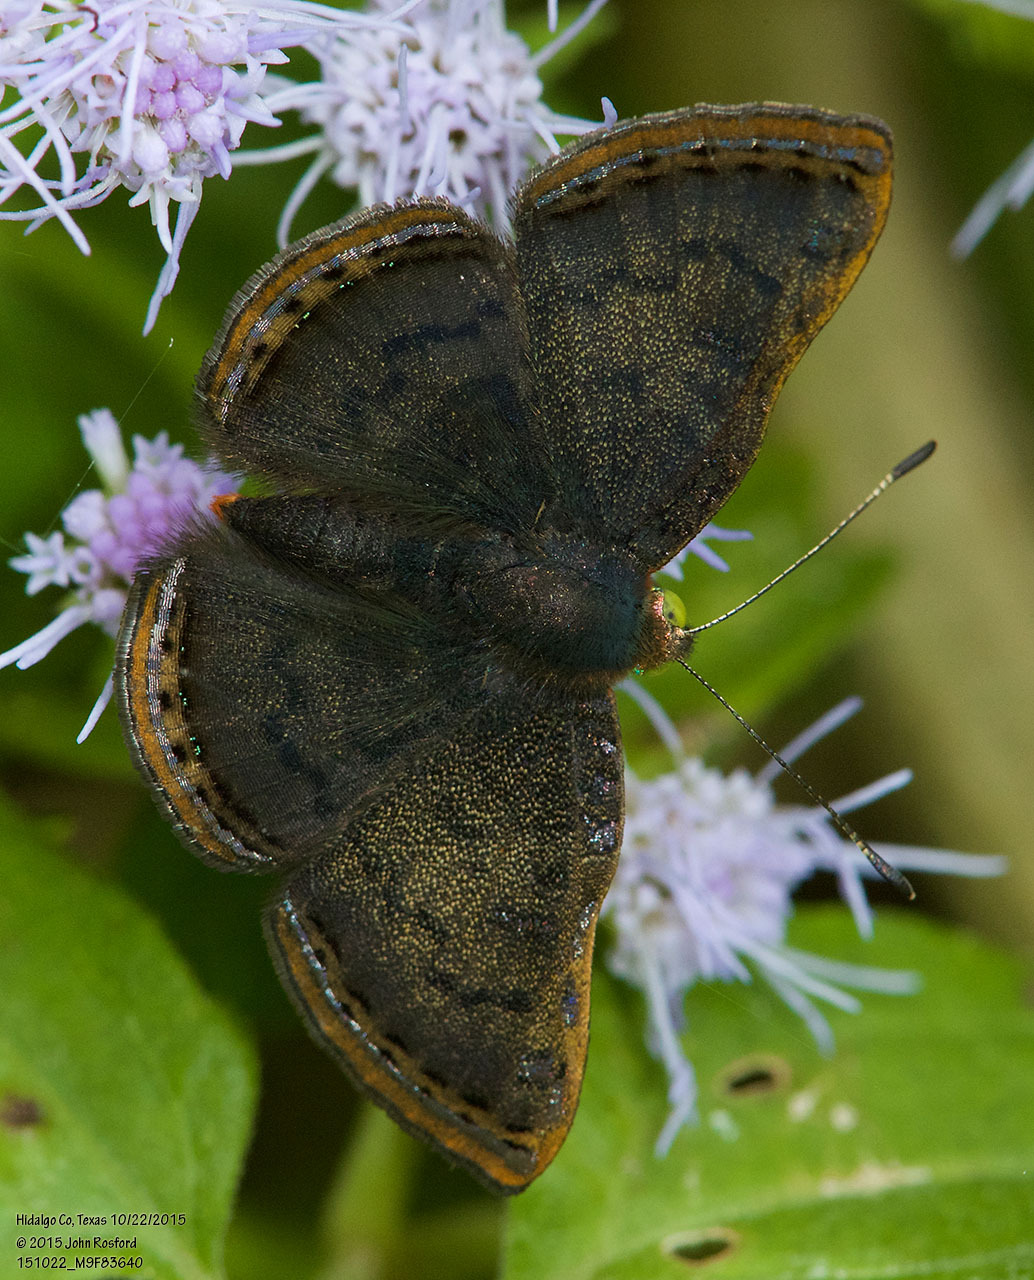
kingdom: Animalia
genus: Caria
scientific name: Caria ino
